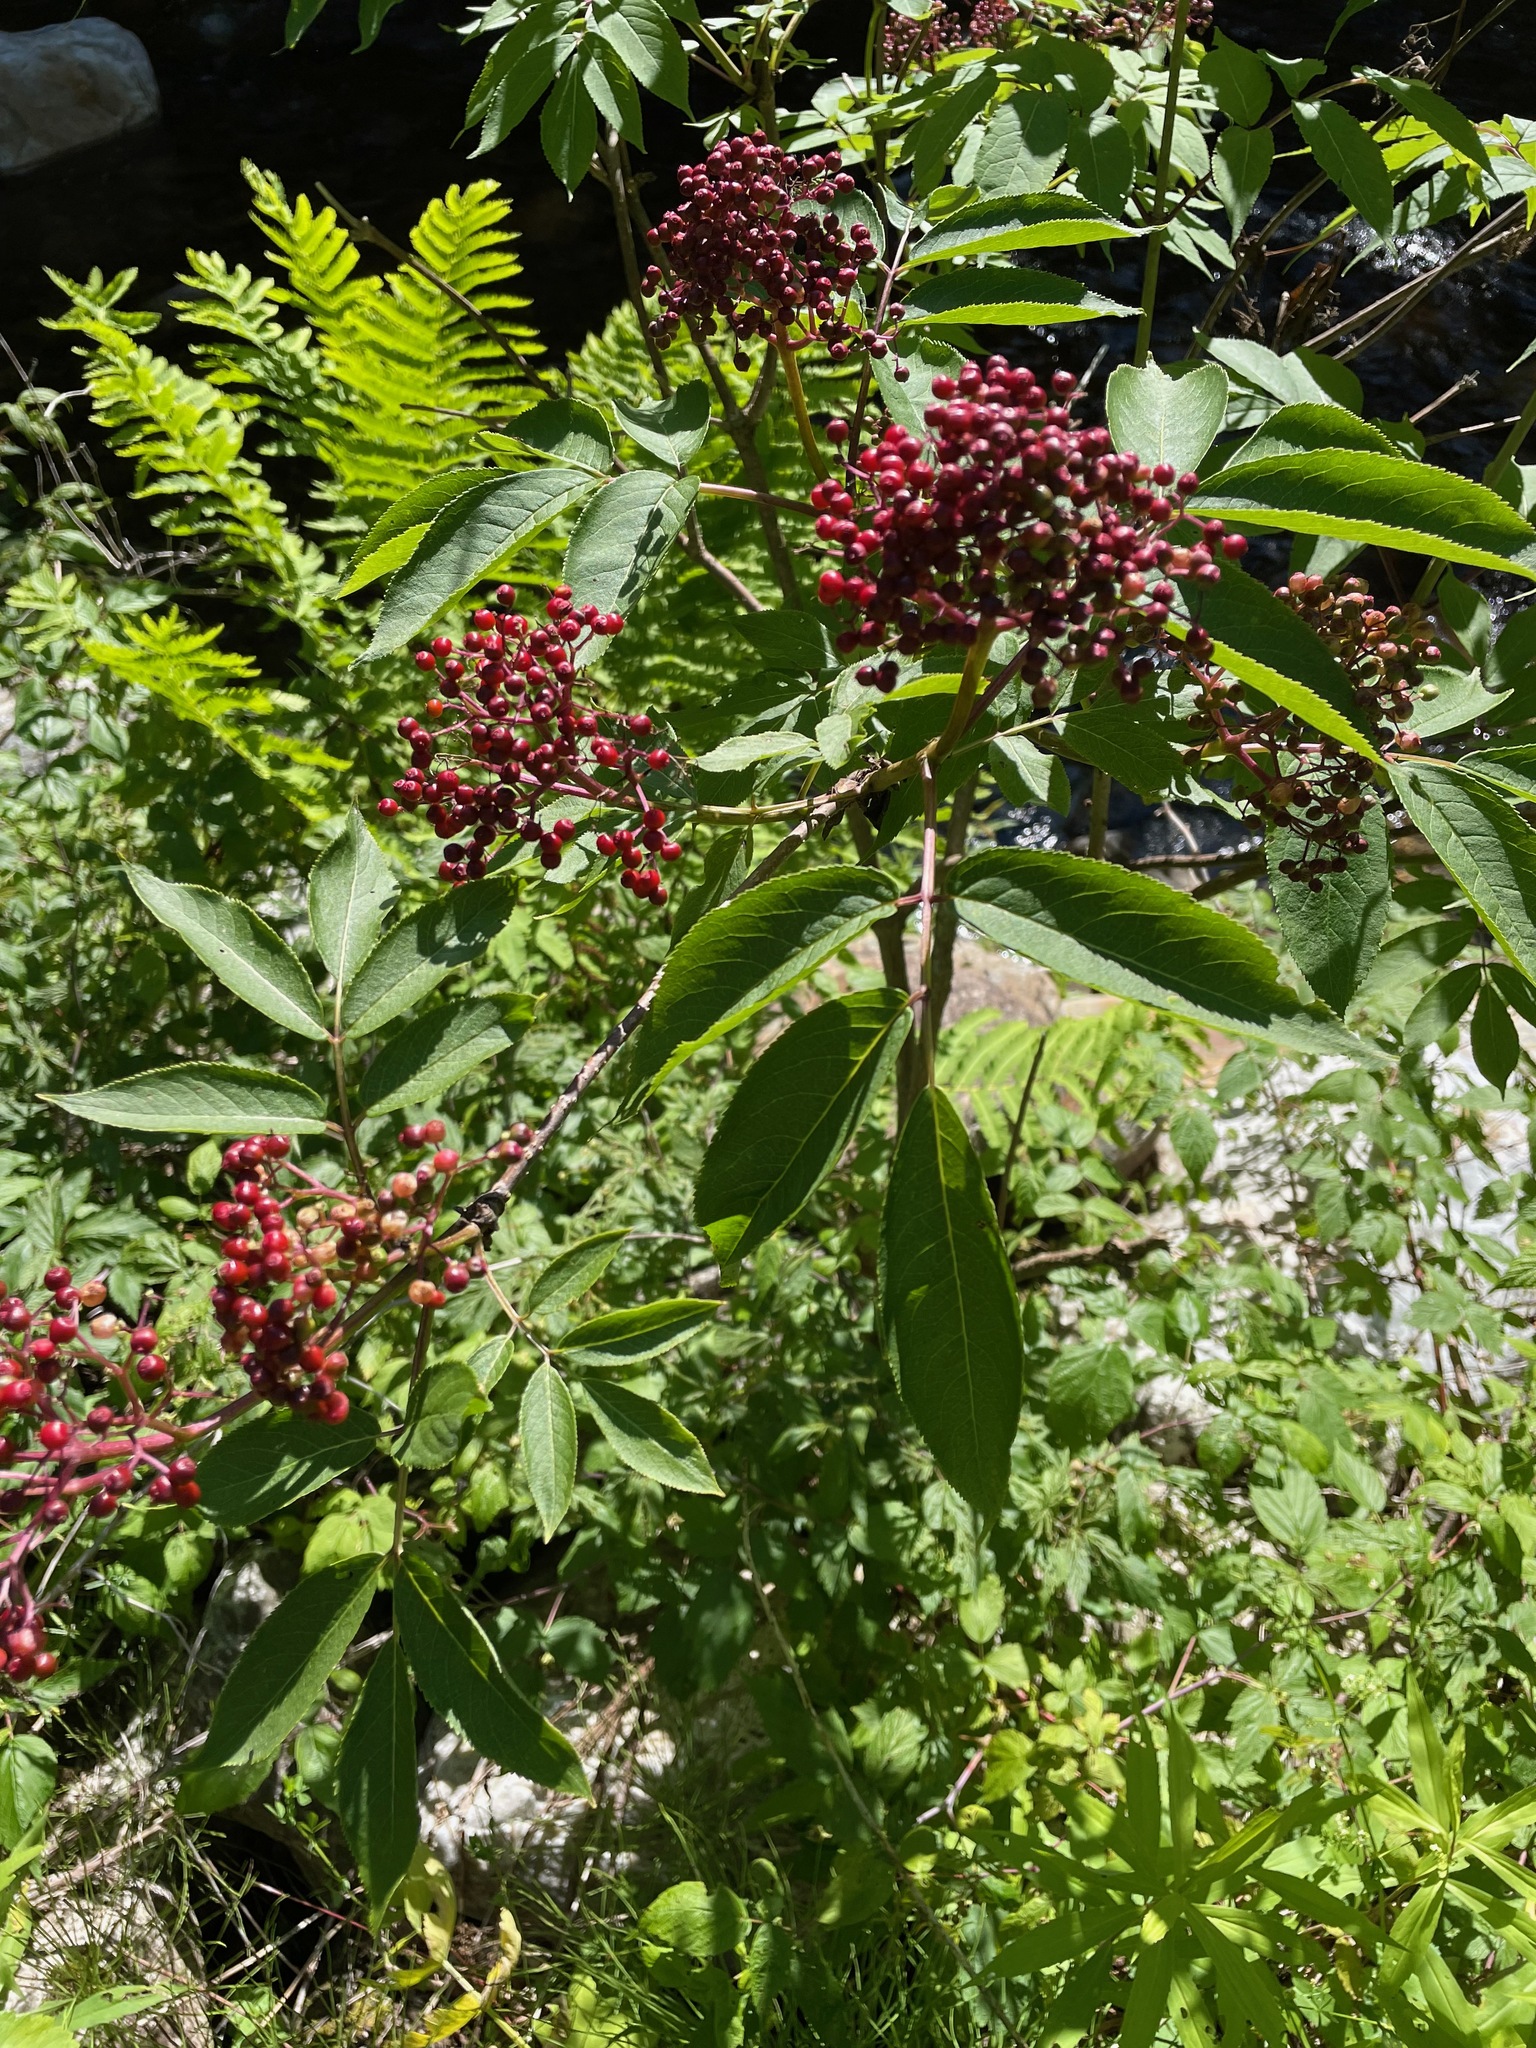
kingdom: Plantae
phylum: Tracheophyta
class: Magnoliopsida
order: Dipsacales
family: Viburnaceae
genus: Sambucus
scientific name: Sambucus racemosa
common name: Red-berried elder
